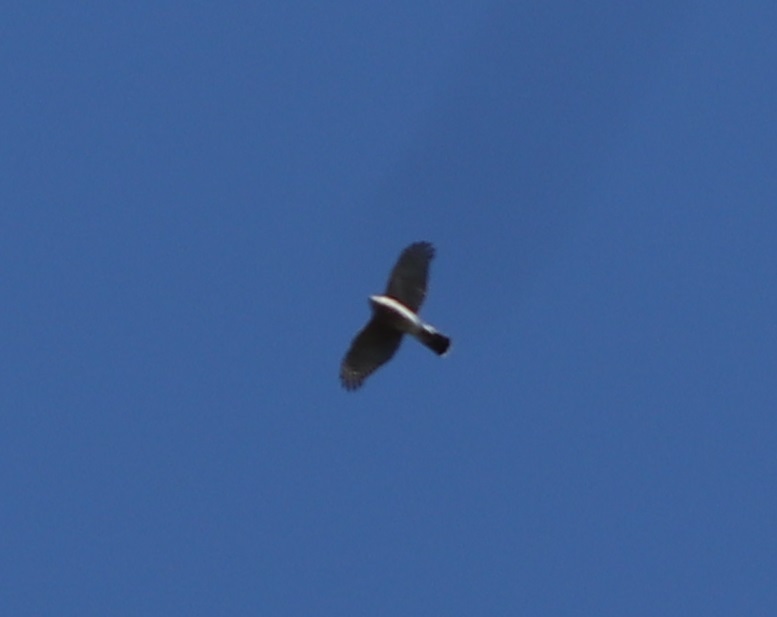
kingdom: Animalia
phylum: Chordata
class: Aves
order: Accipitriformes
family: Accipitridae
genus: Accipiter
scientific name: Accipiter cooperii
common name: Cooper's hawk
